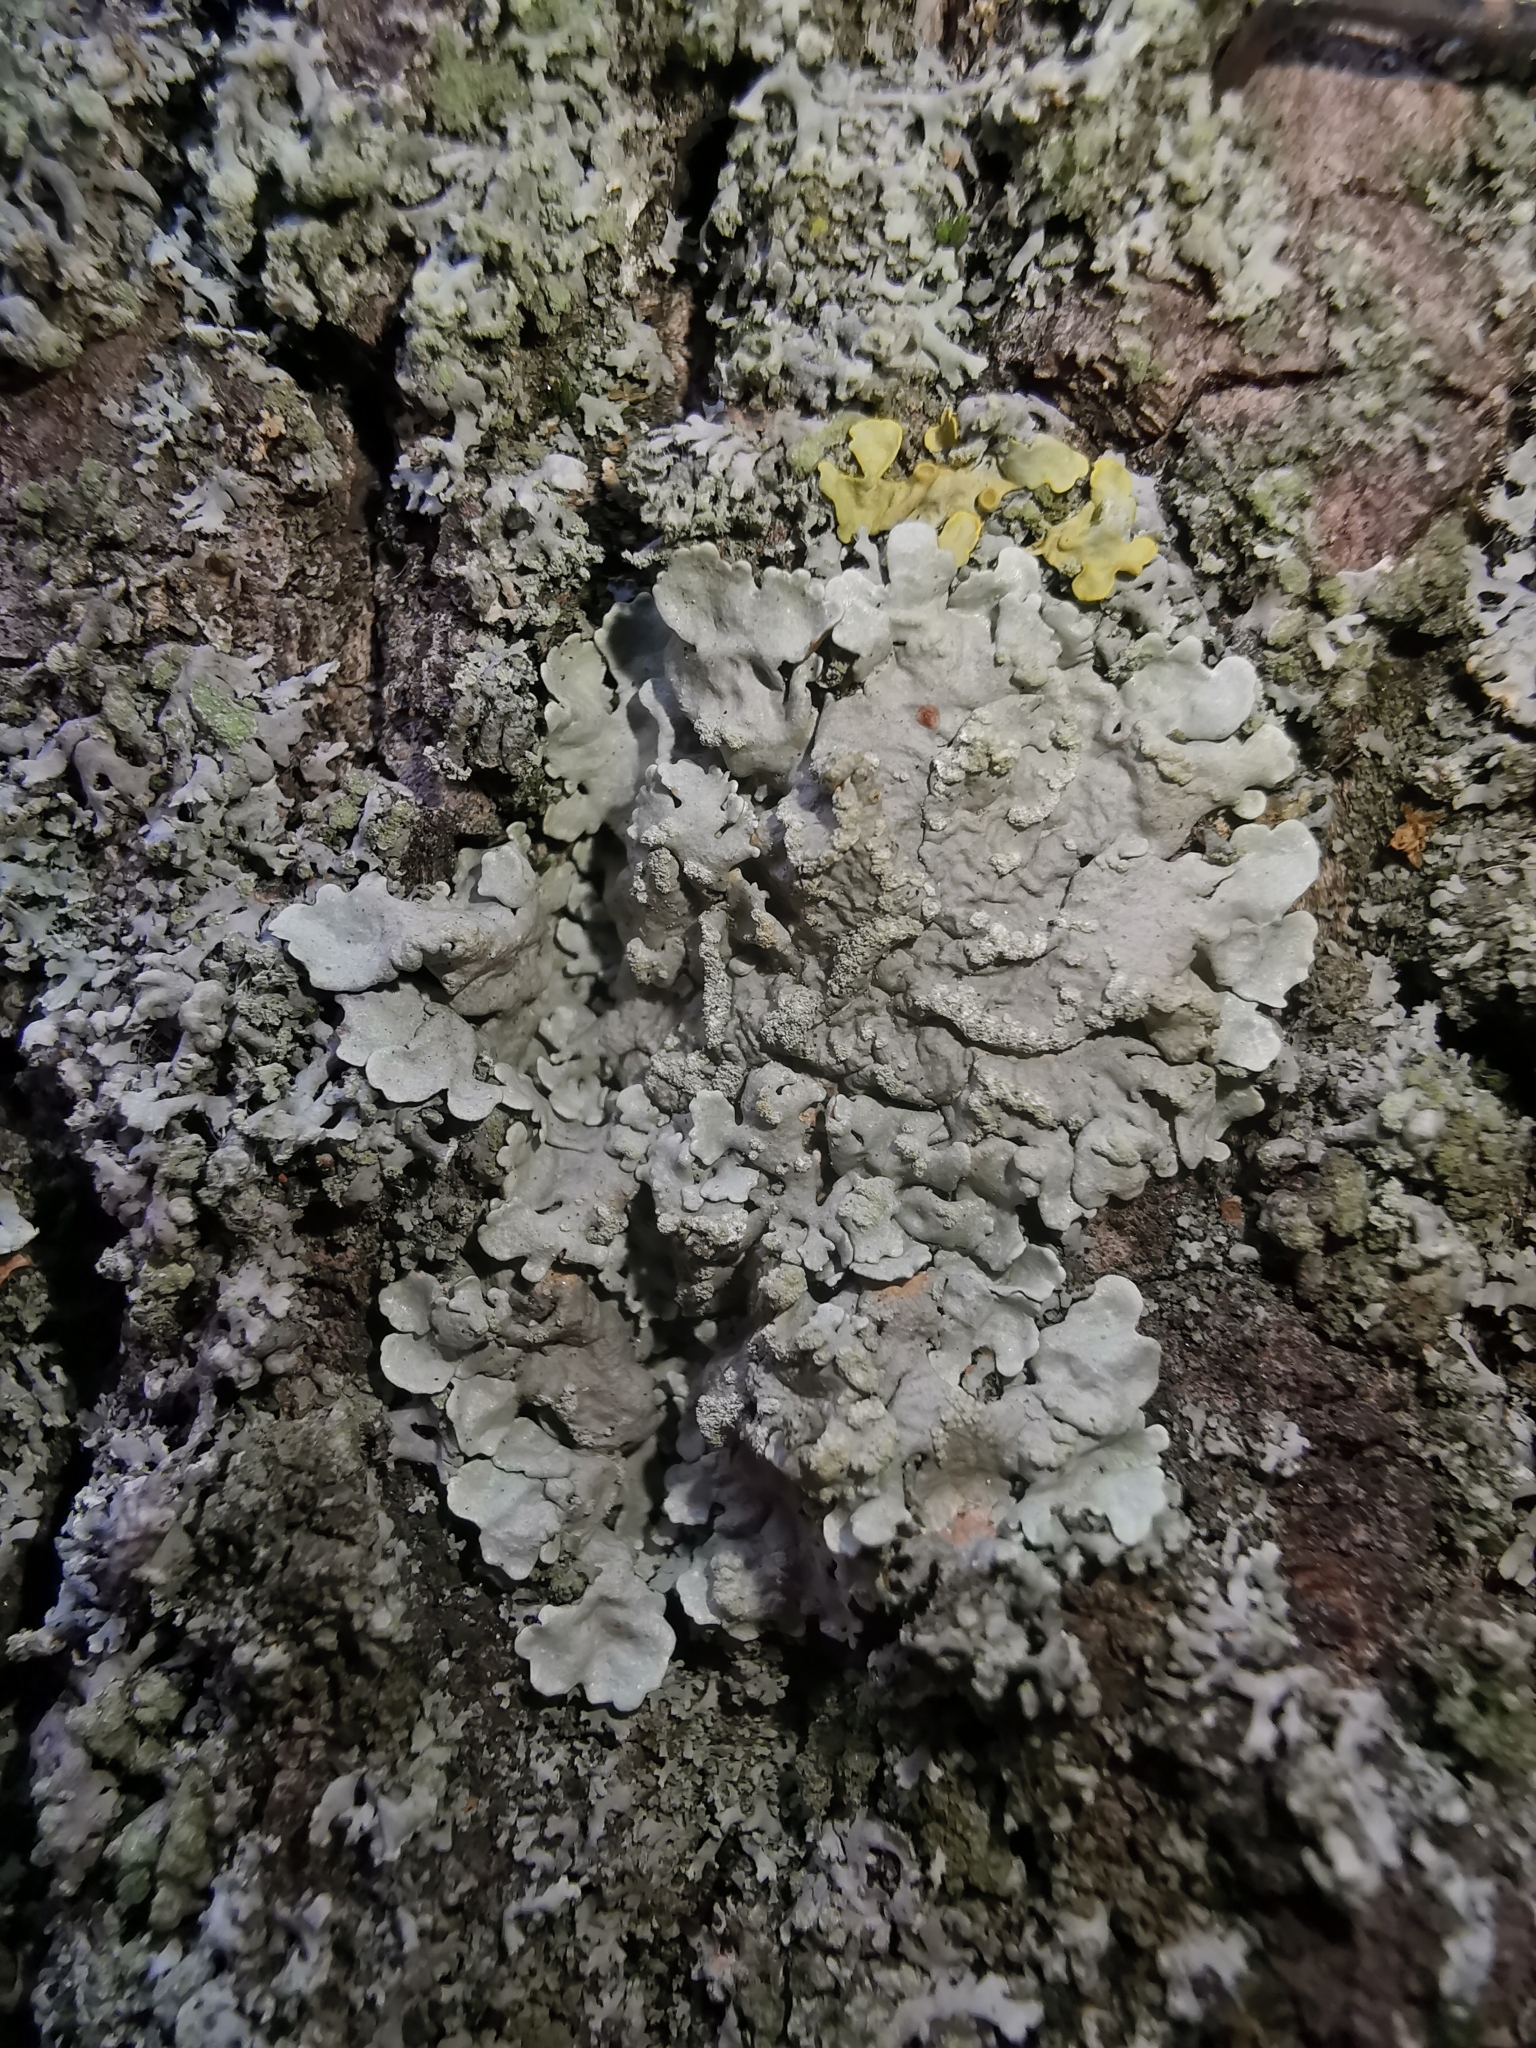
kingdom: Fungi
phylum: Ascomycota
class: Lecanoromycetes
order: Lecanorales
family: Parmeliaceae
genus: Flavoparmelia
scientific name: Flavoparmelia soredians
